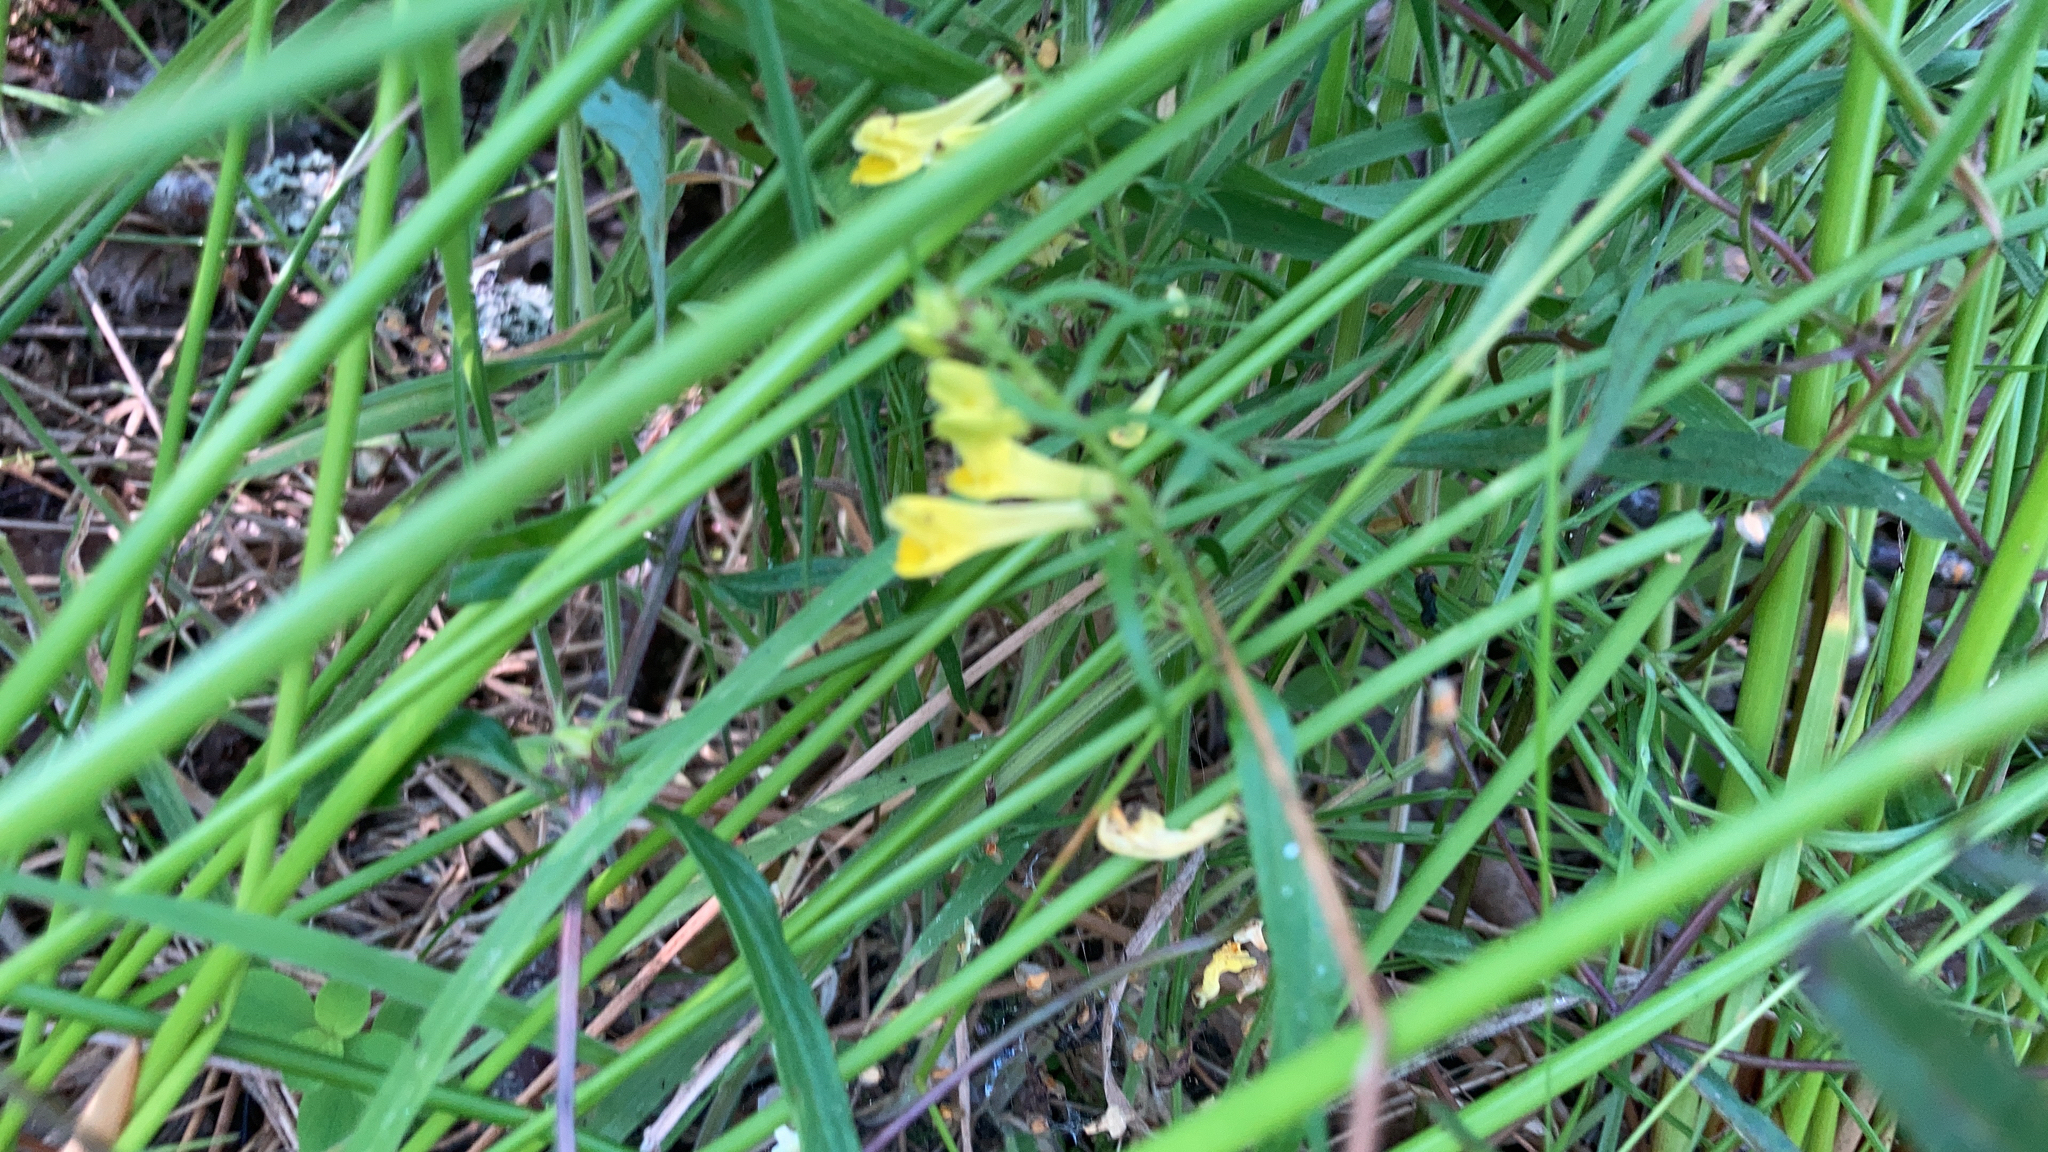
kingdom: Plantae
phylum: Tracheophyta
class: Magnoliopsida
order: Lamiales
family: Orobanchaceae
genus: Melampyrum
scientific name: Melampyrum pratense
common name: Common cow-wheat
